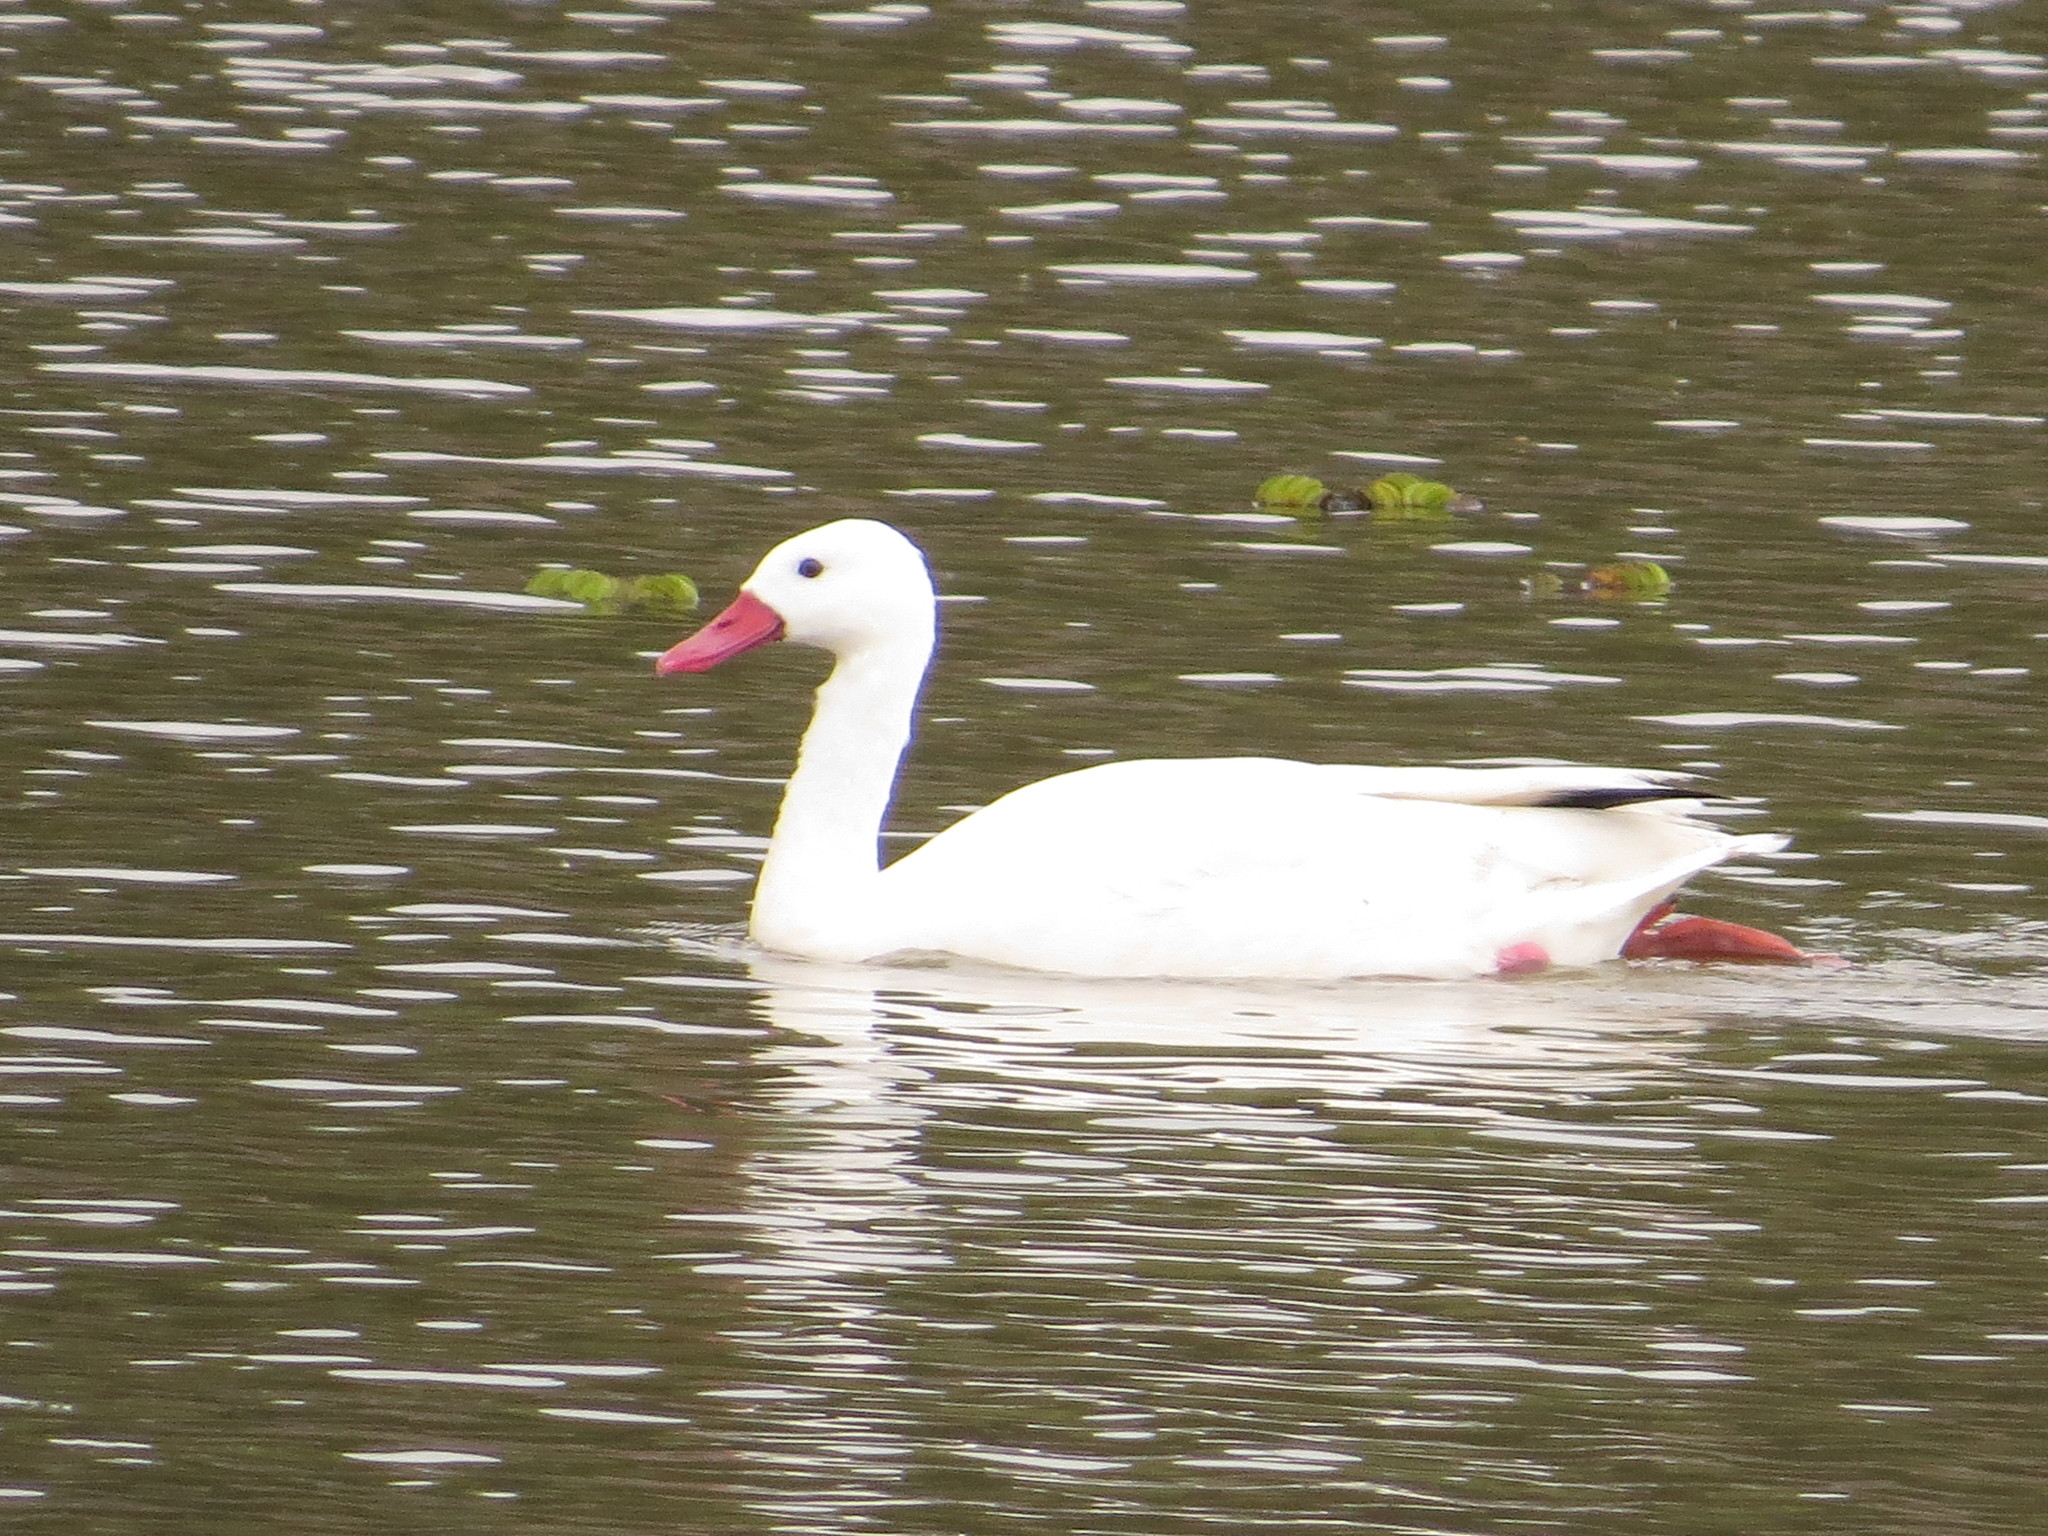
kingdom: Animalia
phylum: Chordata
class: Aves
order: Anseriformes
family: Anatidae
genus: Coscoroba
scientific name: Coscoroba coscoroba
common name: Coscoroba swan
